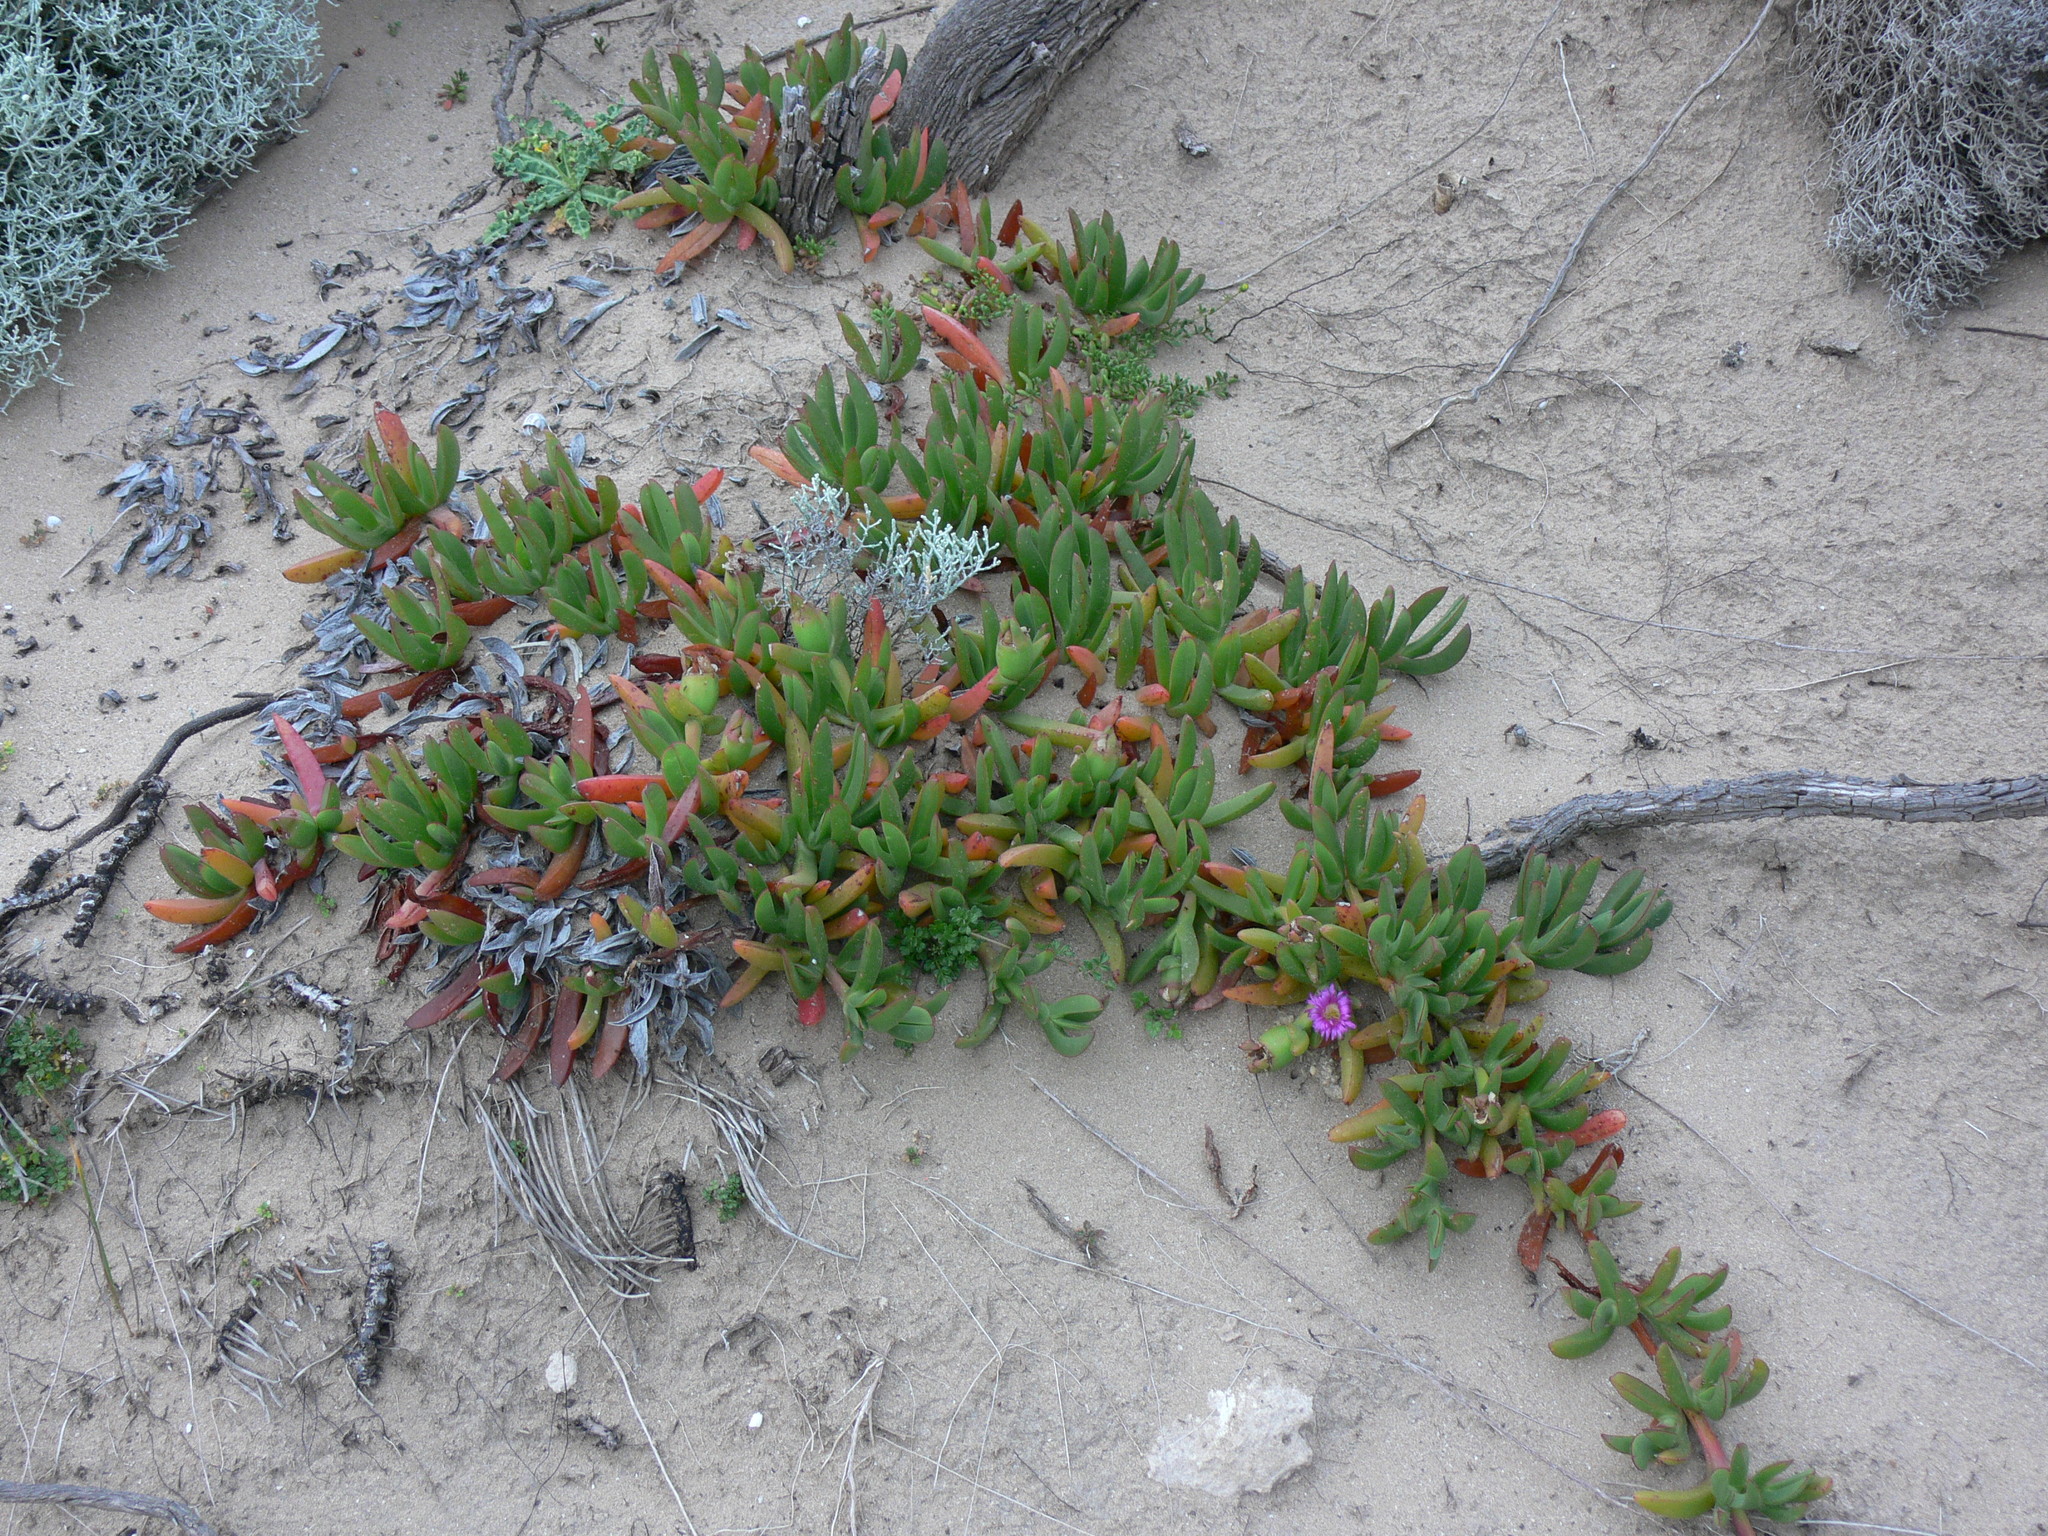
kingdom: Plantae
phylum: Tracheophyta
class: Magnoliopsida
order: Caryophyllales
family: Aizoaceae
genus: Carpobrotus
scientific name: Carpobrotus rossii
